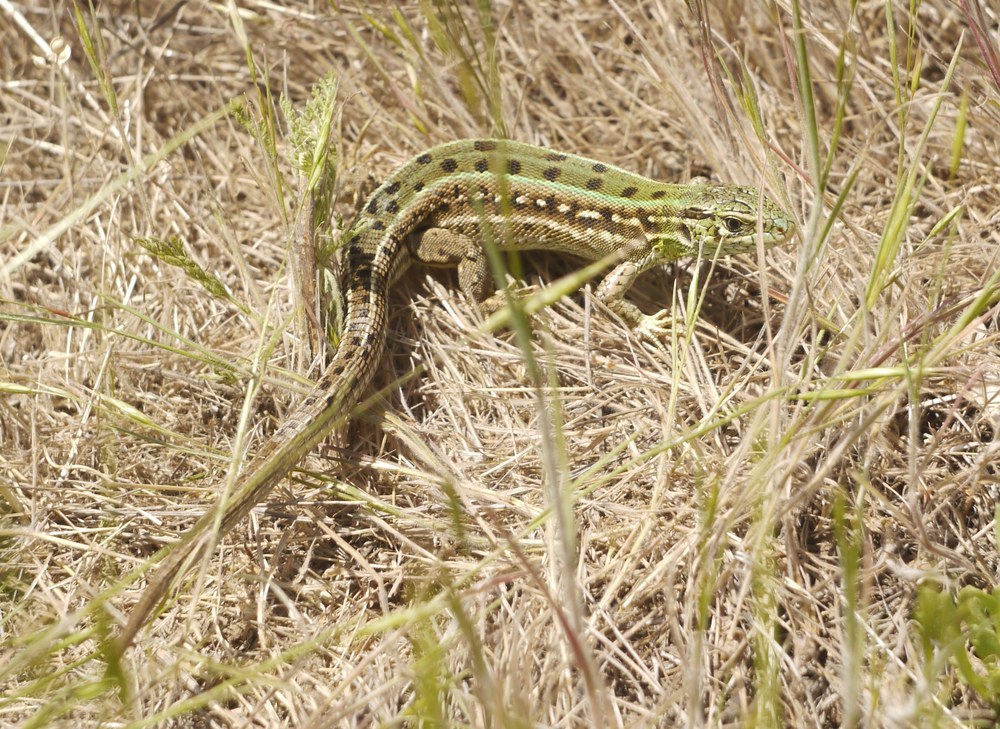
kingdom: Animalia
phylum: Chordata
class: Squamata
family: Lacertidae
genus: Lacerta
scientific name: Lacerta agilis
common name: Sand lizard
